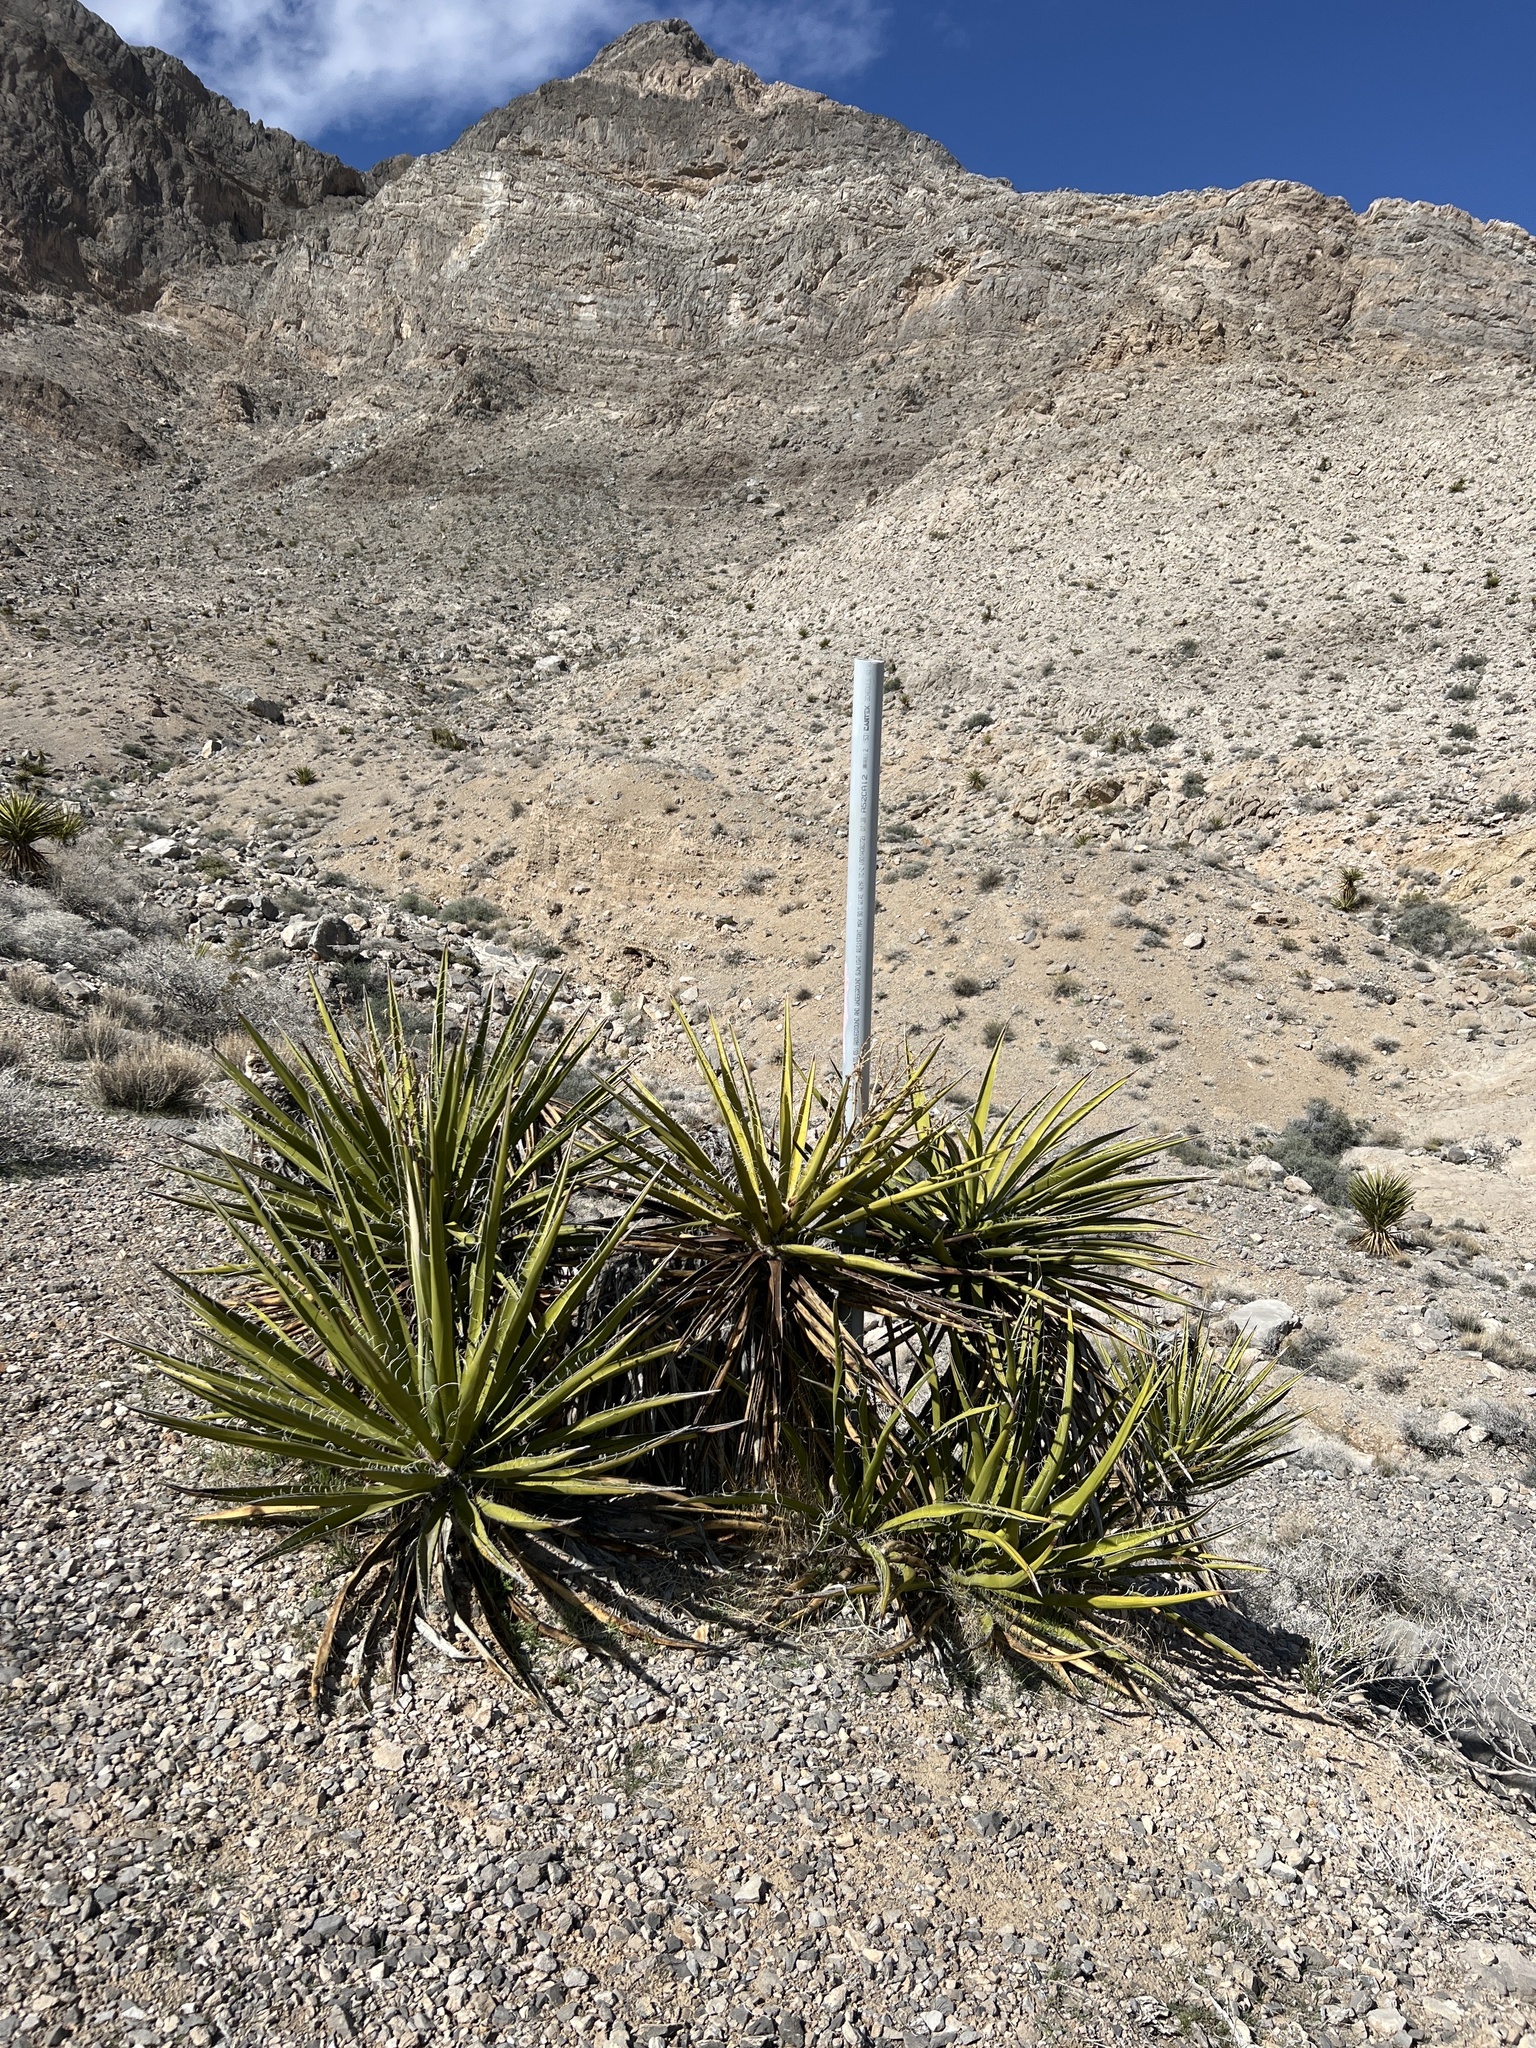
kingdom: Plantae
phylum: Tracheophyta
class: Liliopsida
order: Asparagales
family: Asparagaceae
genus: Yucca
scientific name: Yucca schidigera
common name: Mojave yucca
